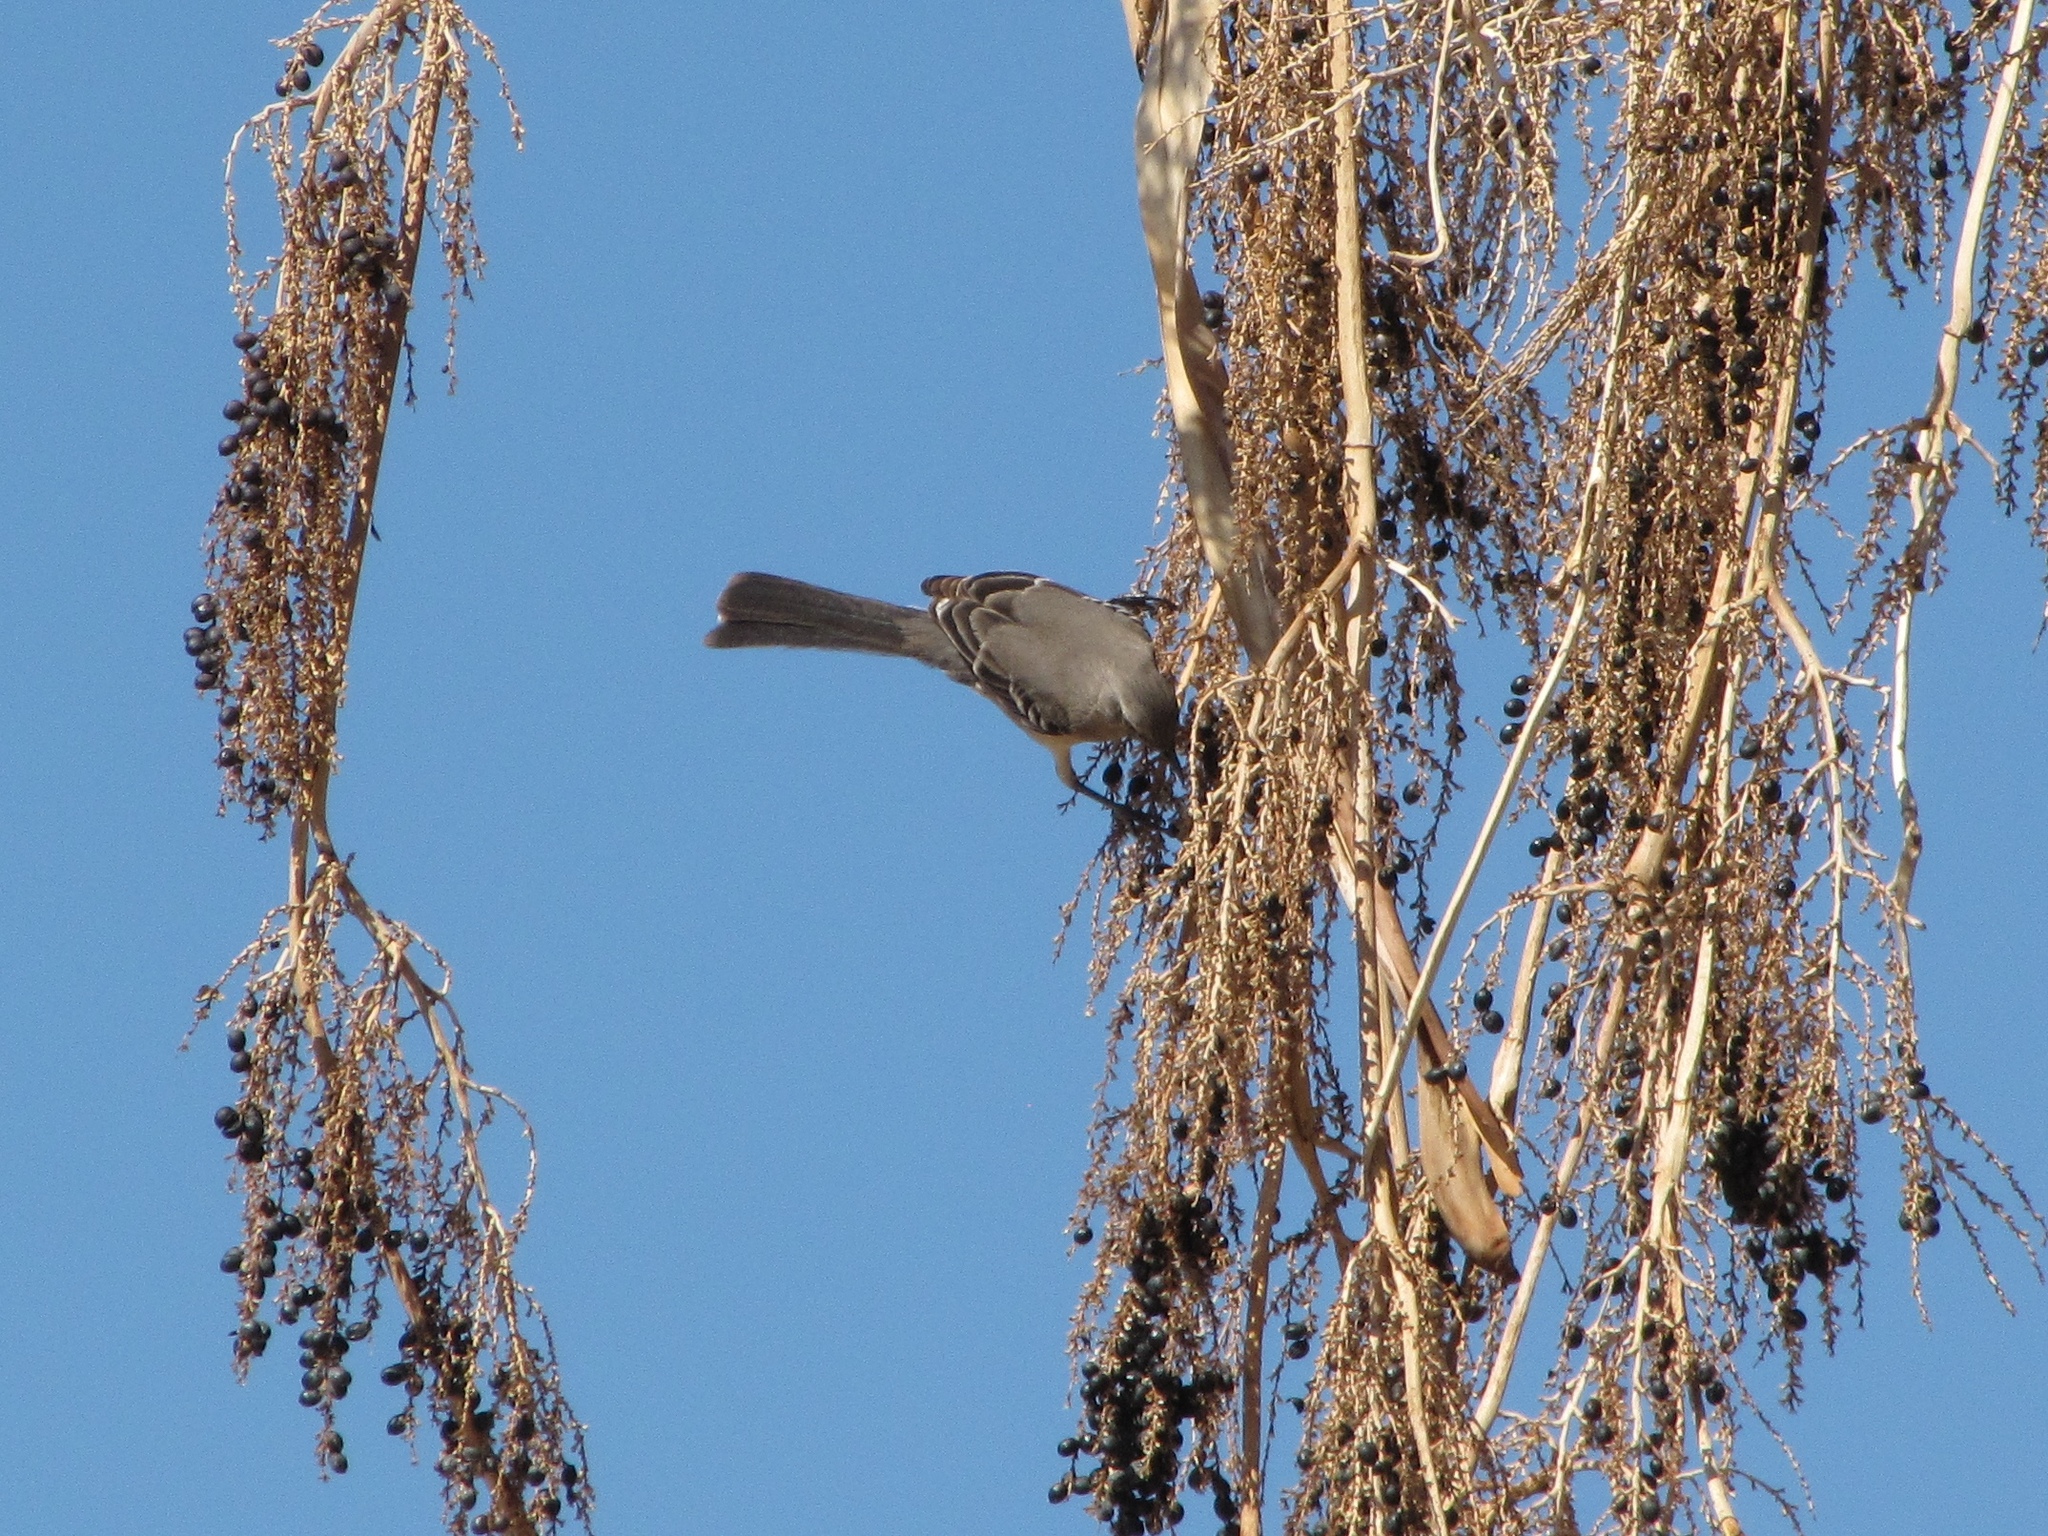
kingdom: Animalia
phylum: Chordata
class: Aves
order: Passeriformes
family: Mimidae
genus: Mimus
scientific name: Mimus polyglottos
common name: Northern mockingbird
